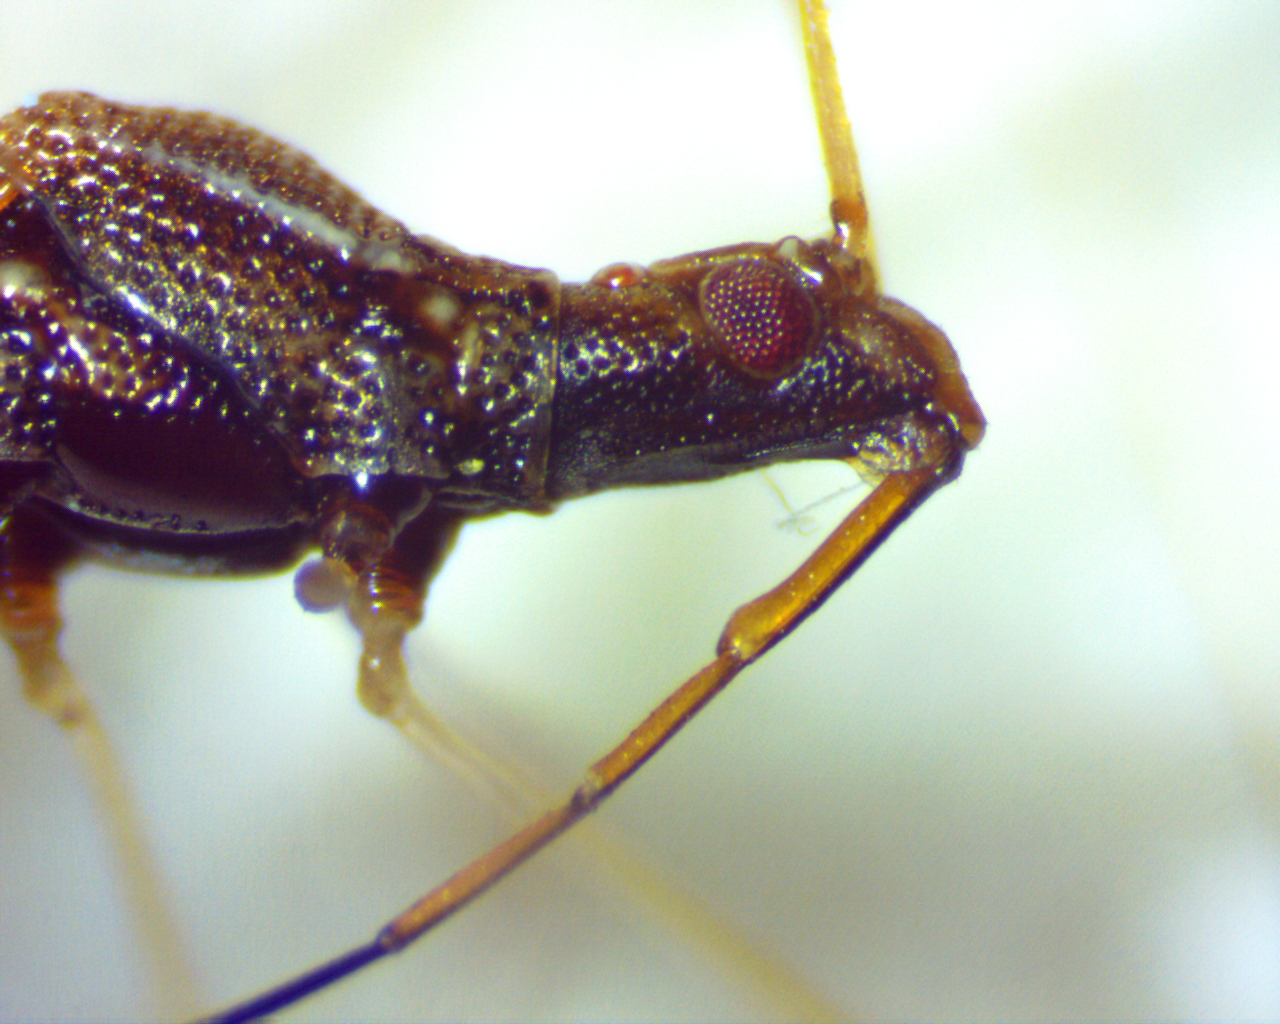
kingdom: Animalia
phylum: Arthropoda
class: Insecta
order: Hemiptera
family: Berytidae
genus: Jalysus
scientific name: Jalysus wickhami
